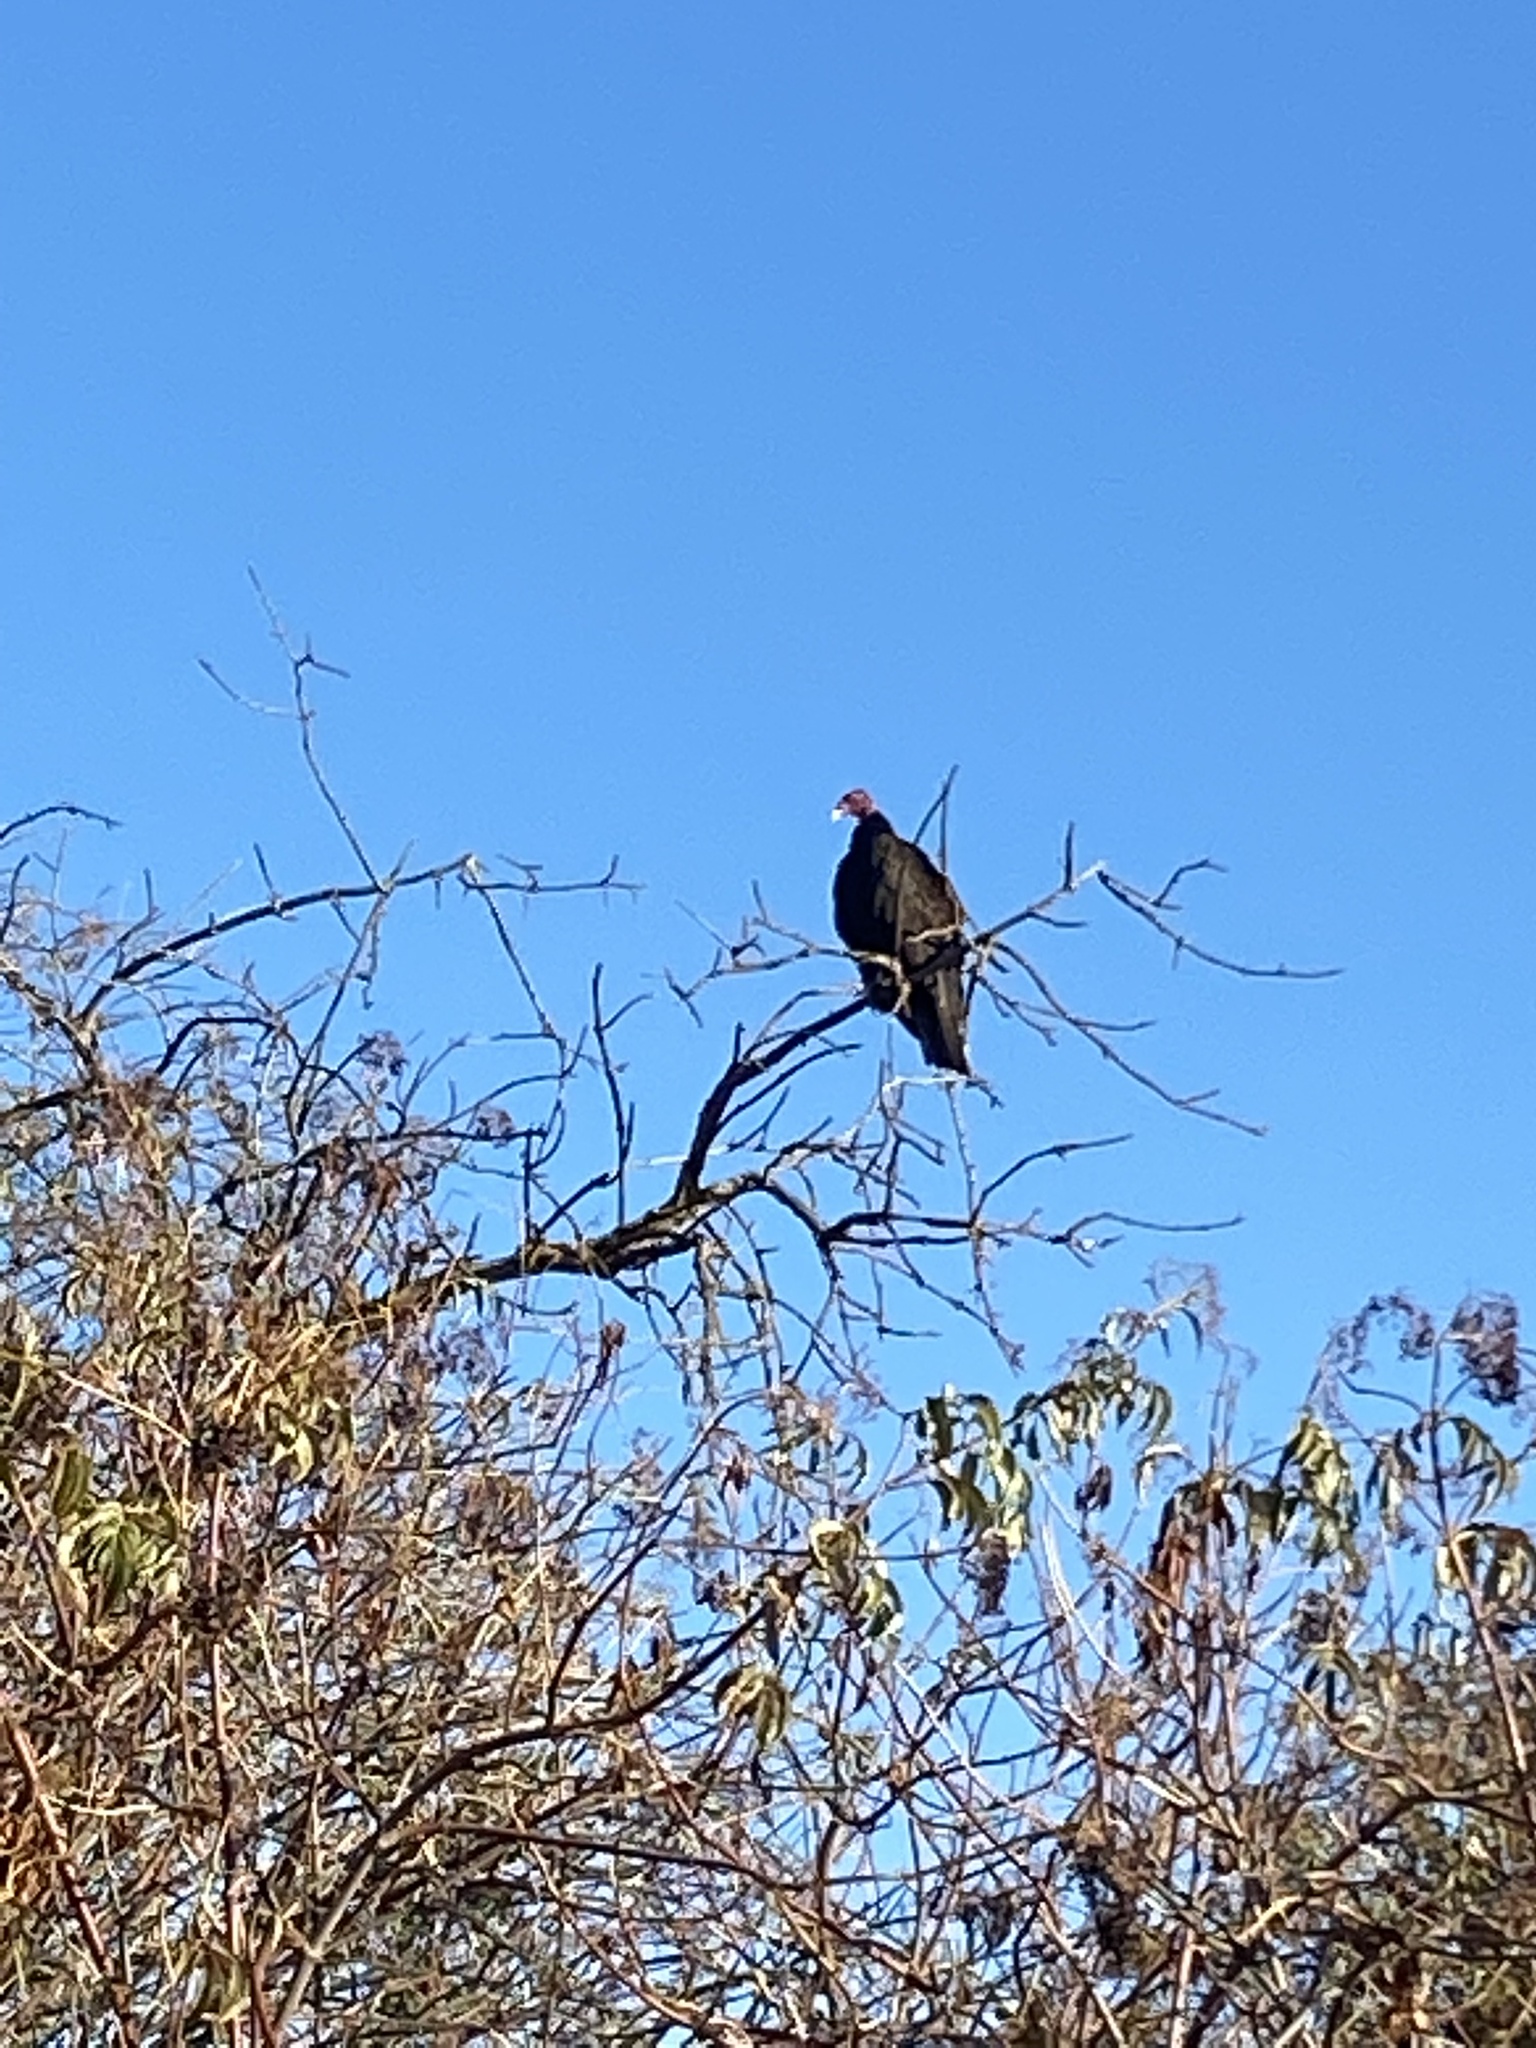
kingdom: Animalia
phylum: Chordata
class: Aves
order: Accipitriformes
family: Cathartidae
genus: Cathartes
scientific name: Cathartes aura
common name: Turkey vulture
